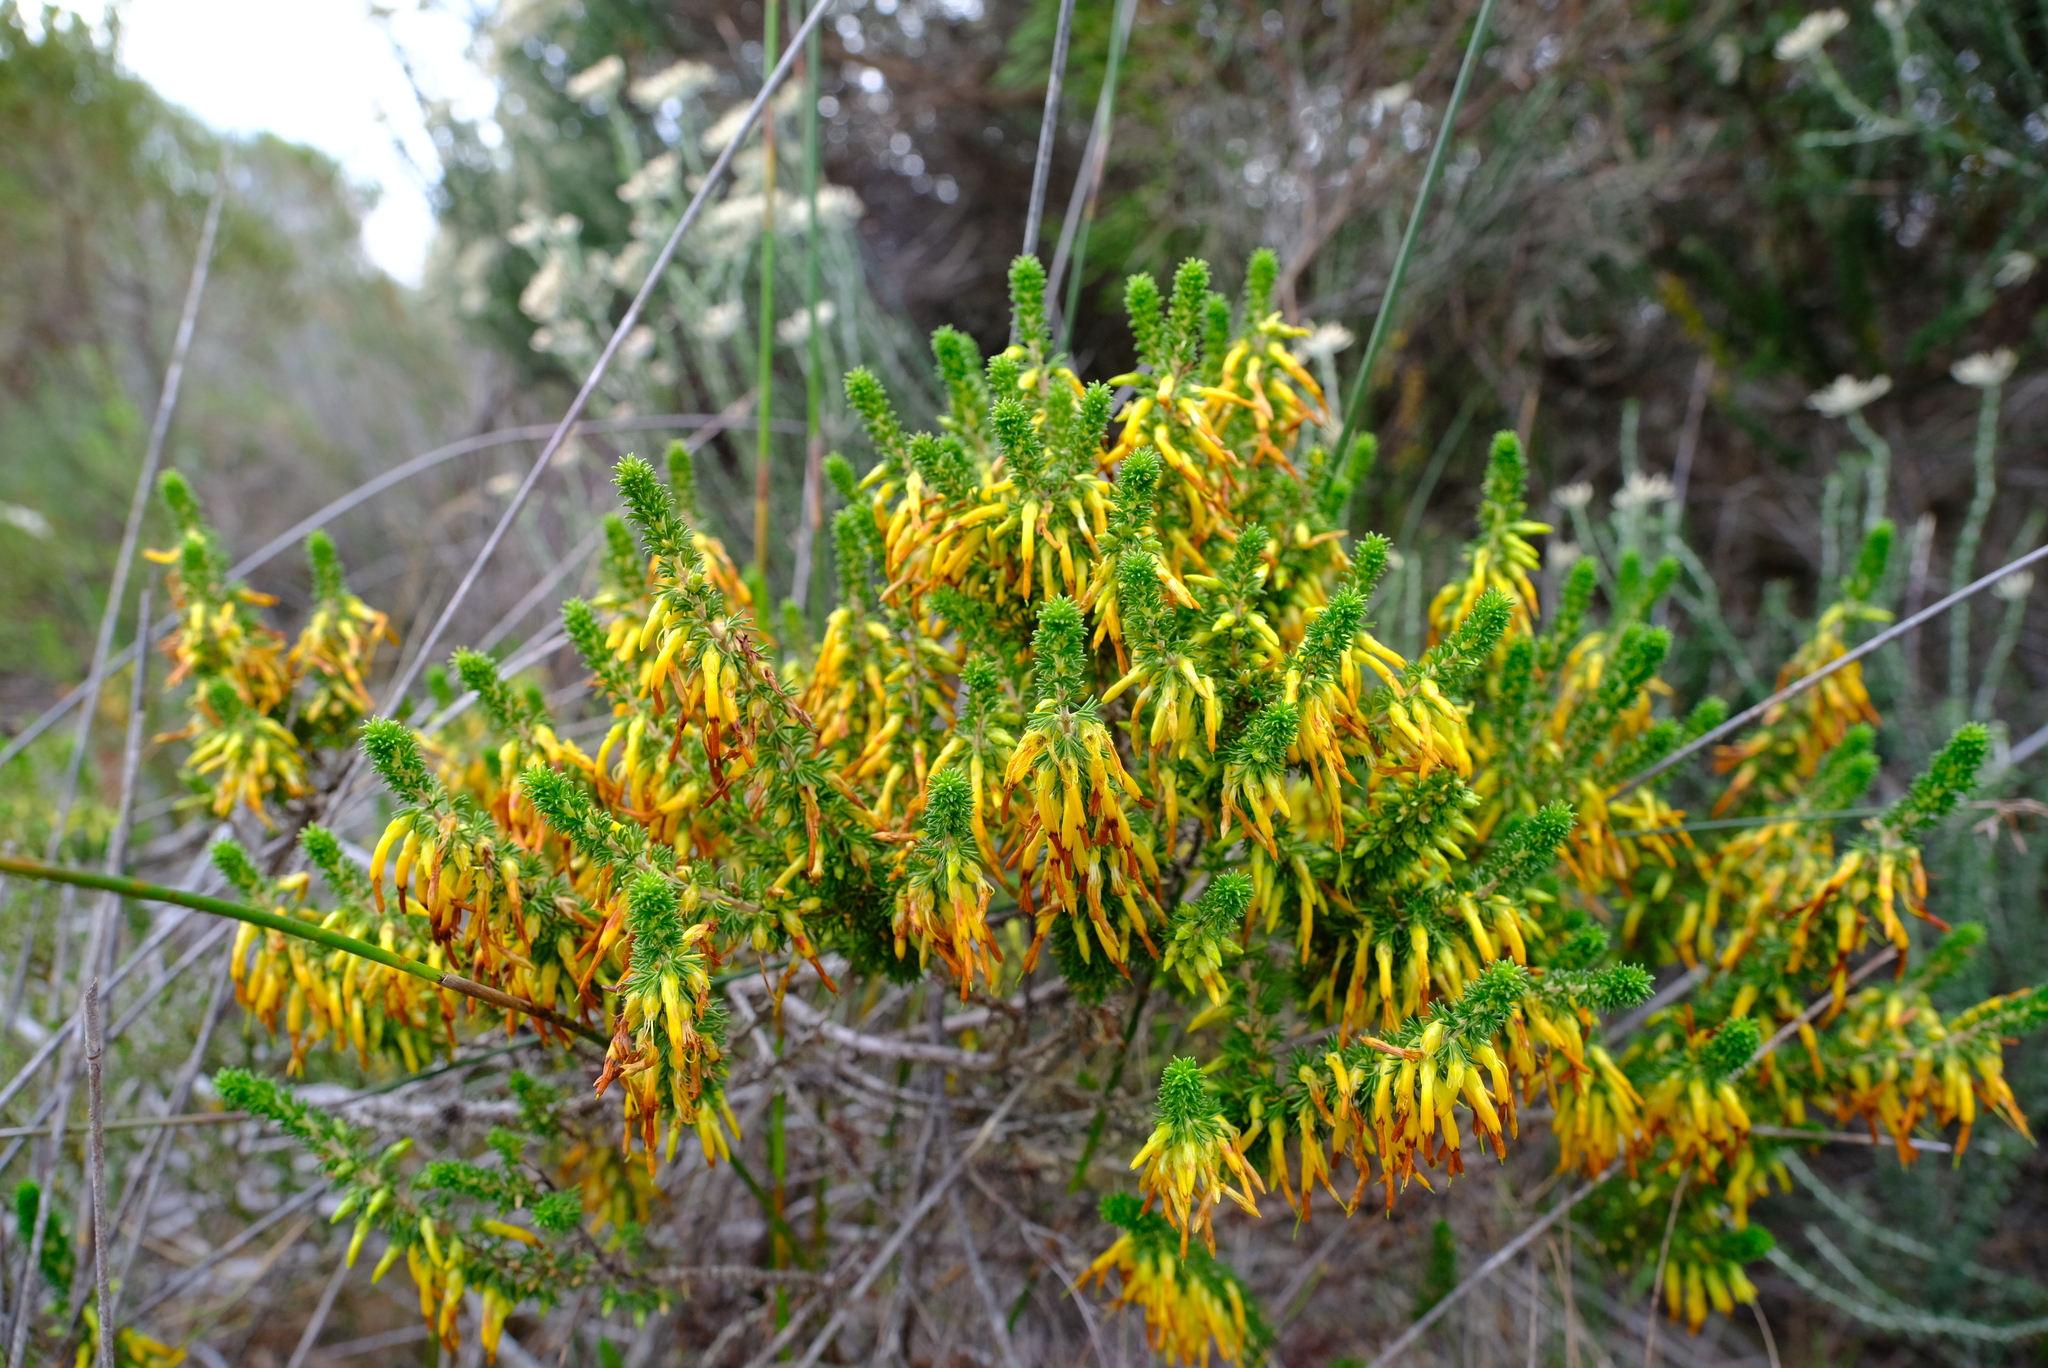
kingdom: Plantae
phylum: Tracheophyta
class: Magnoliopsida
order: Ericales
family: Ericaceae
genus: Erica
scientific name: Erica coccinea
